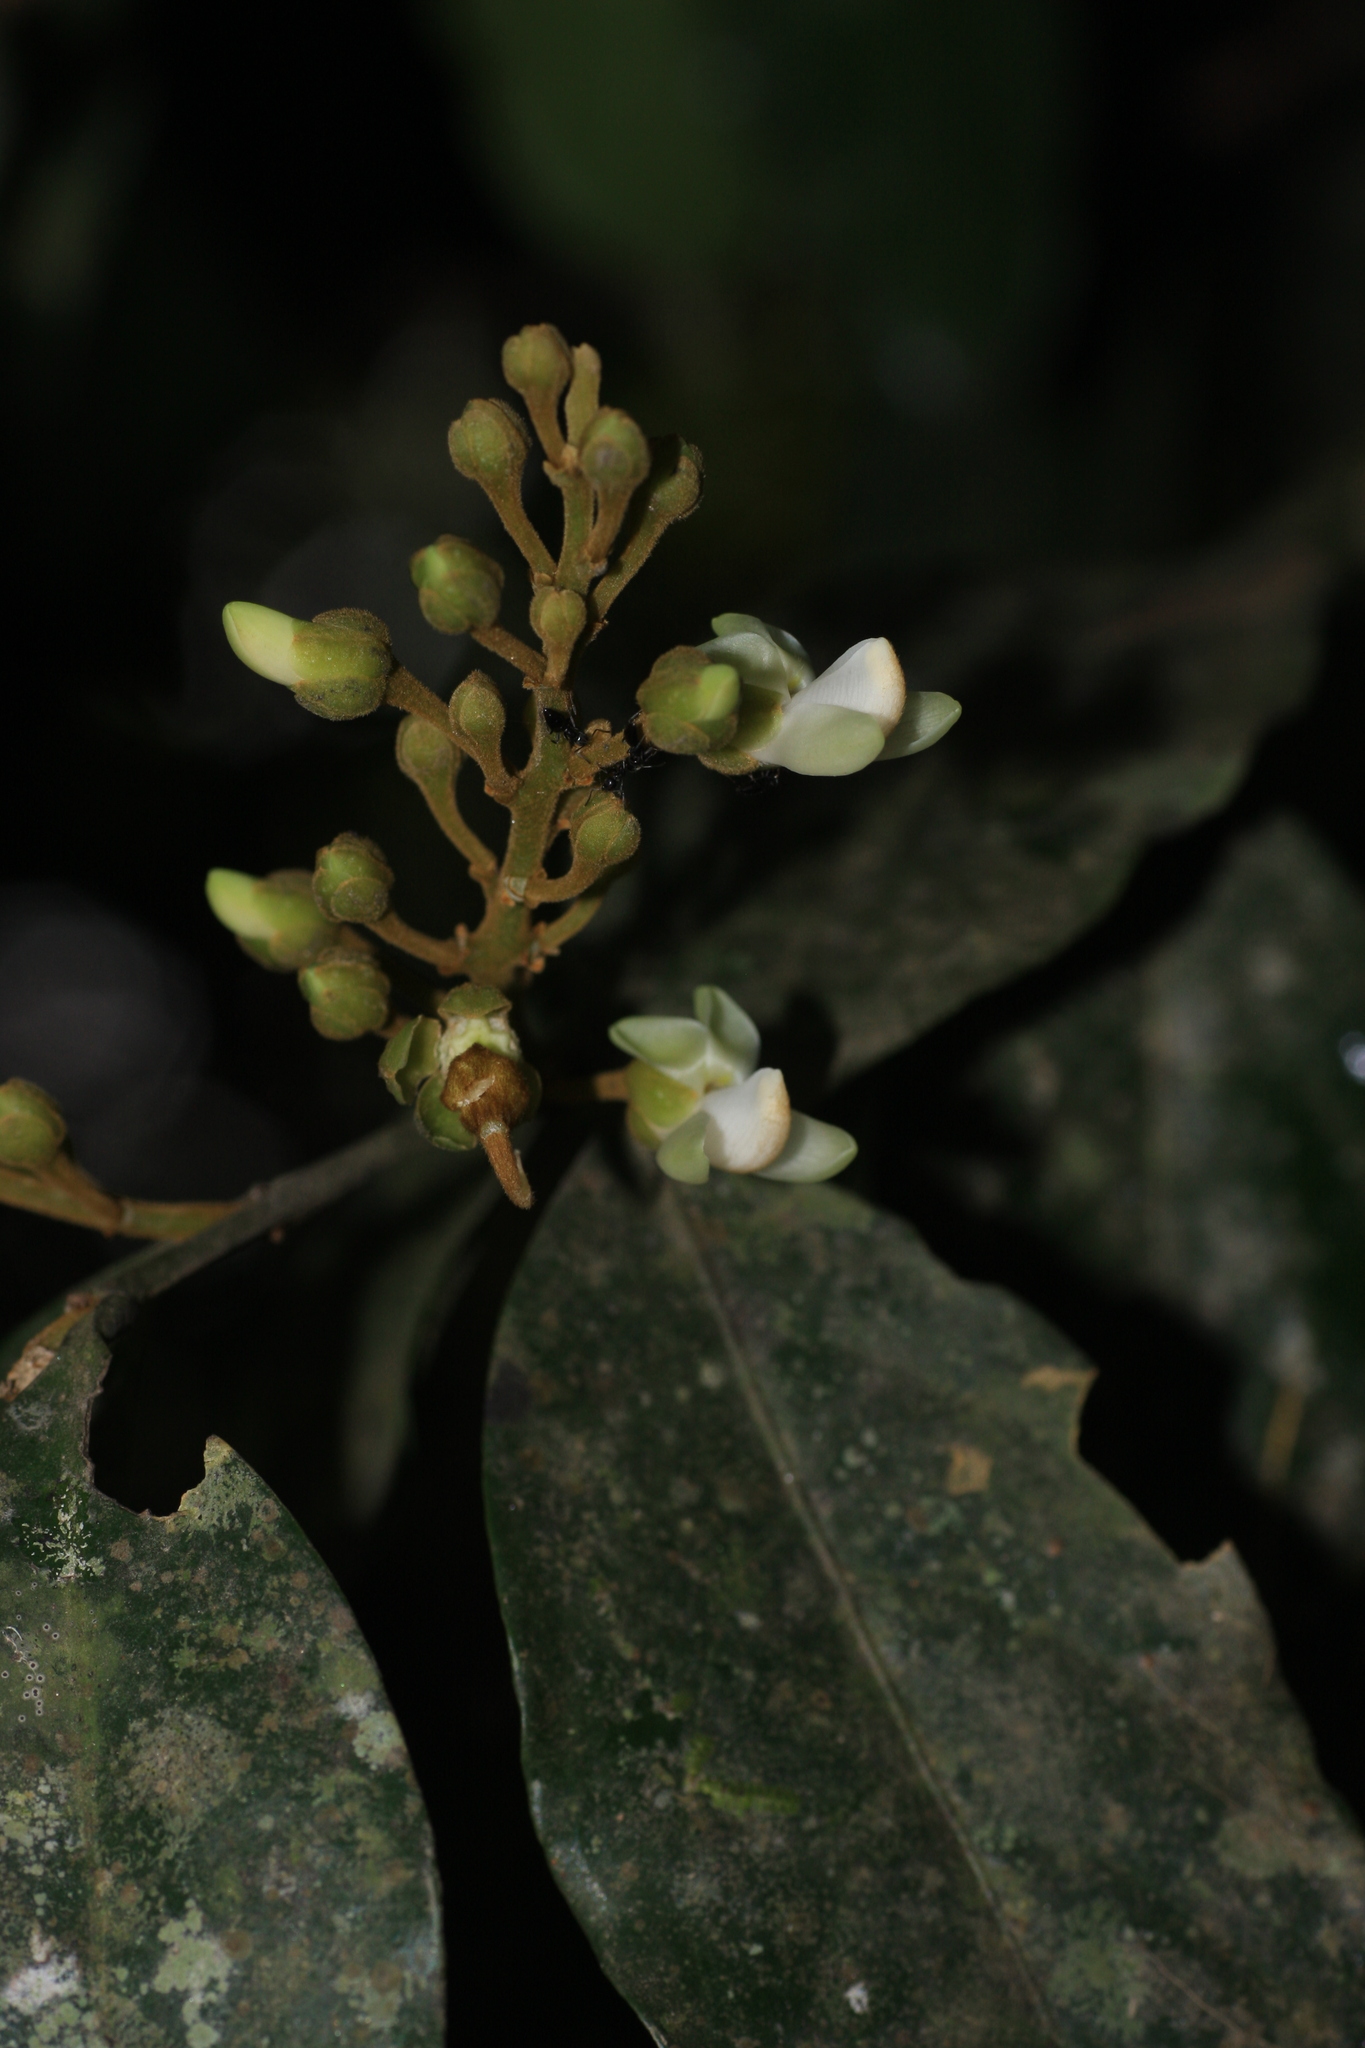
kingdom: Plantae
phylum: Tracheophyta
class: Magnoliopsida
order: Fabales
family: Polygalaceae
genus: Xanthophyllum
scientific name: Xanthophyllum flavescens
